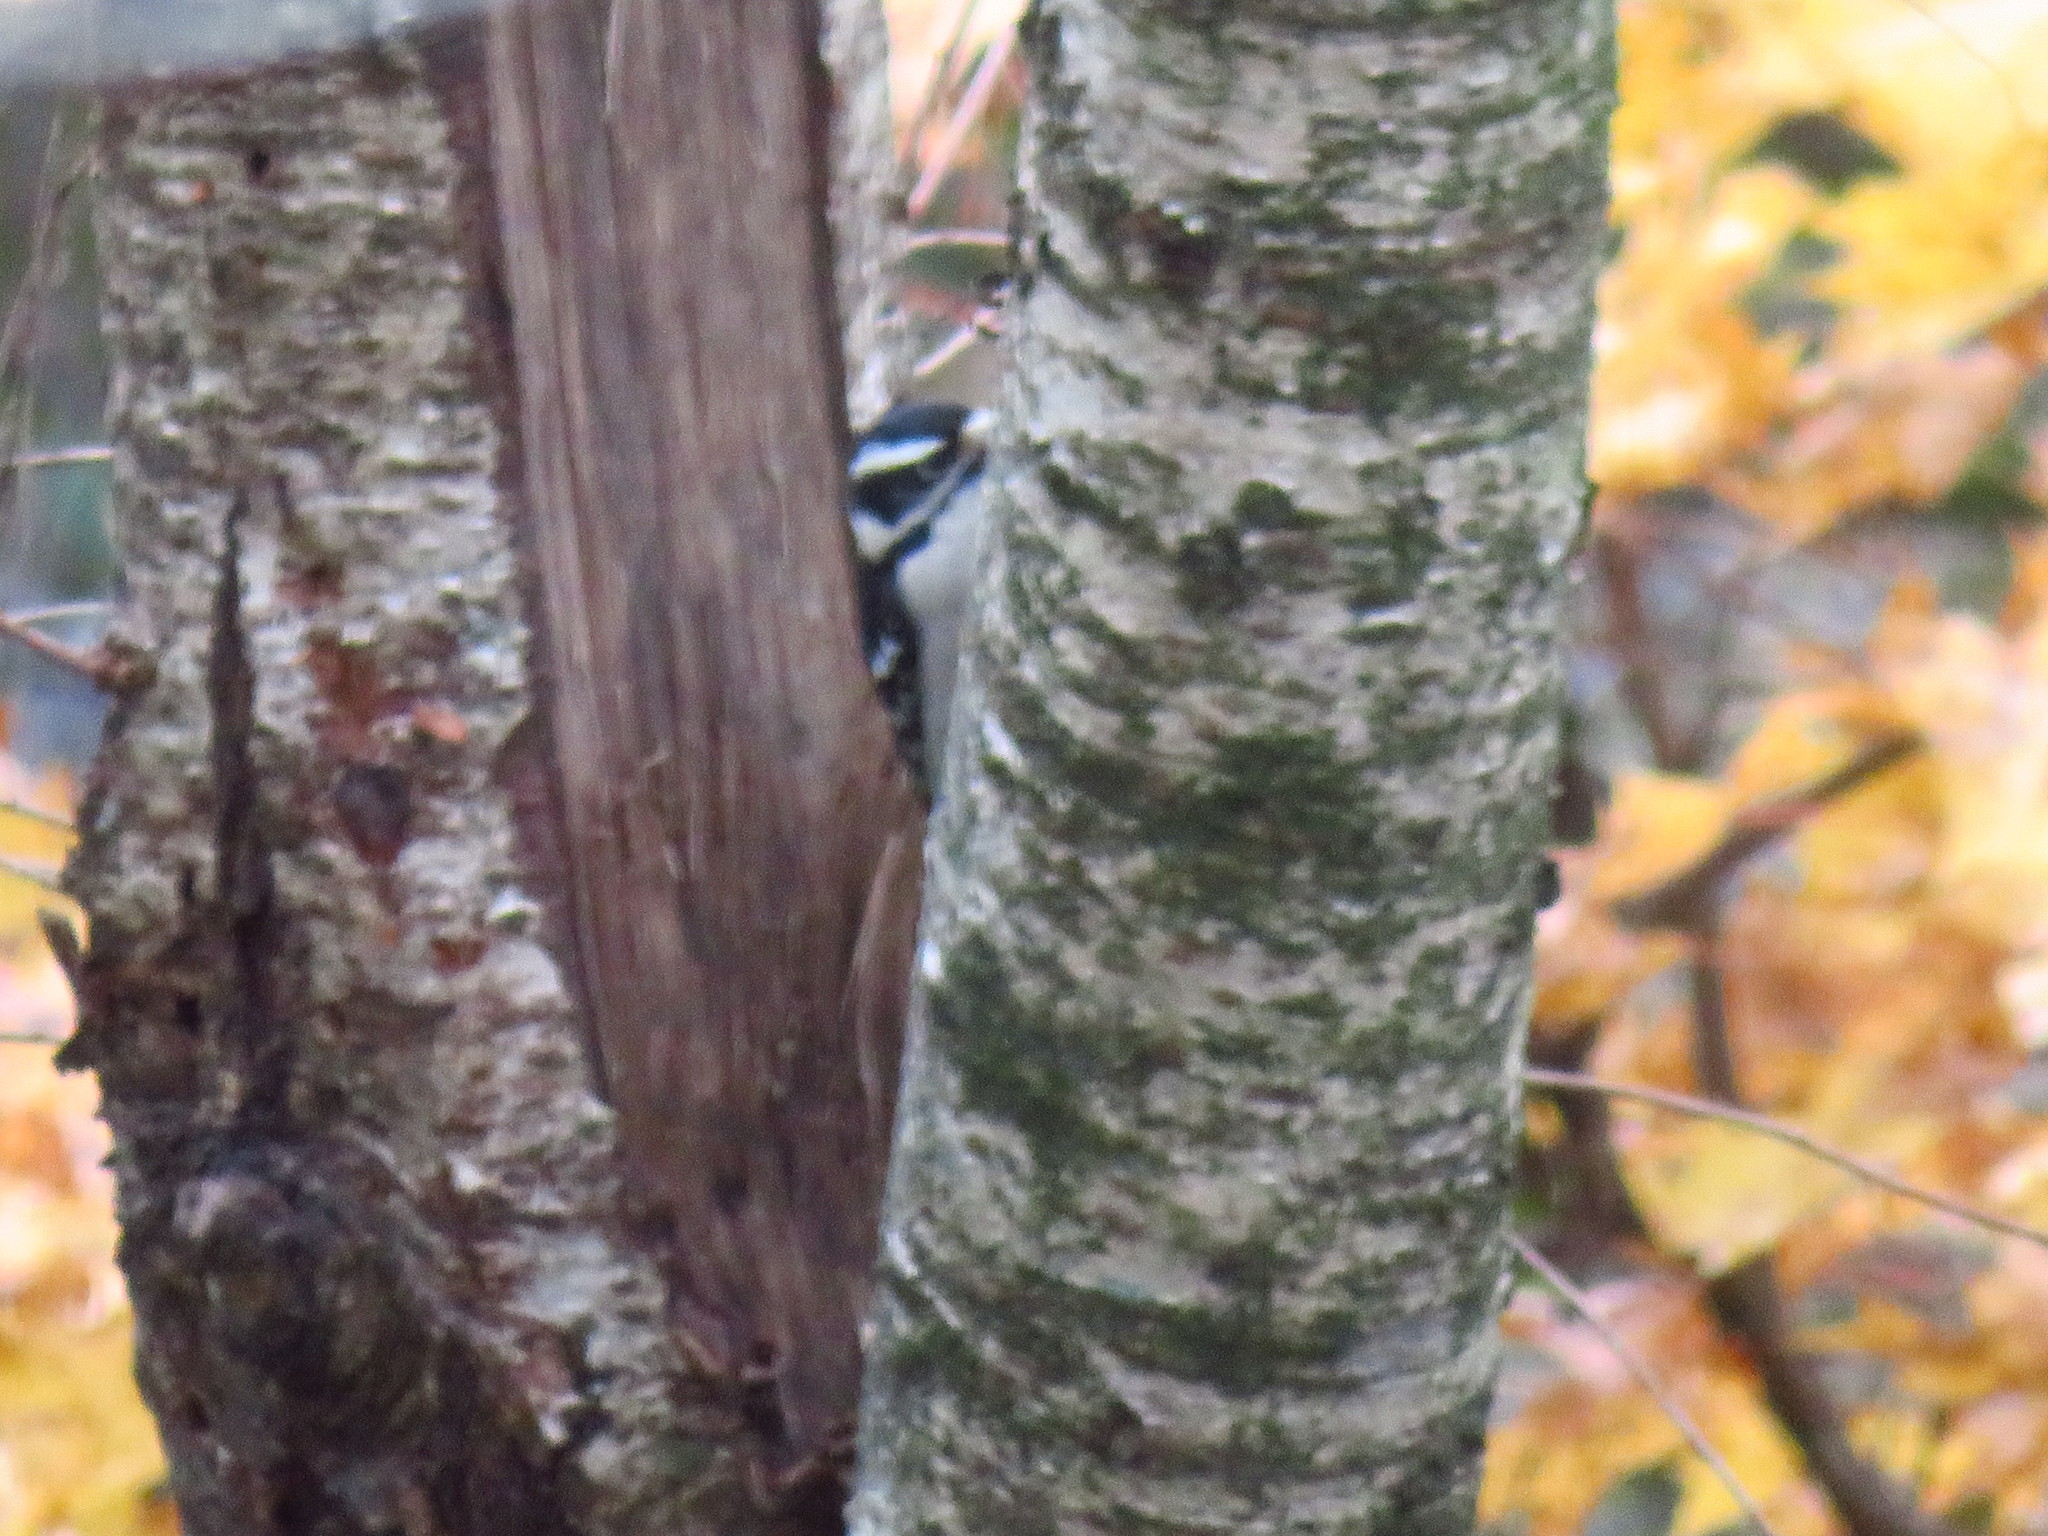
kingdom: Animalia
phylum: Chordata
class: Aves
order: Piciformes
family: Picidae
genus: Dryobates
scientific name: Dryobates pubescens
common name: Downy woodpecker
